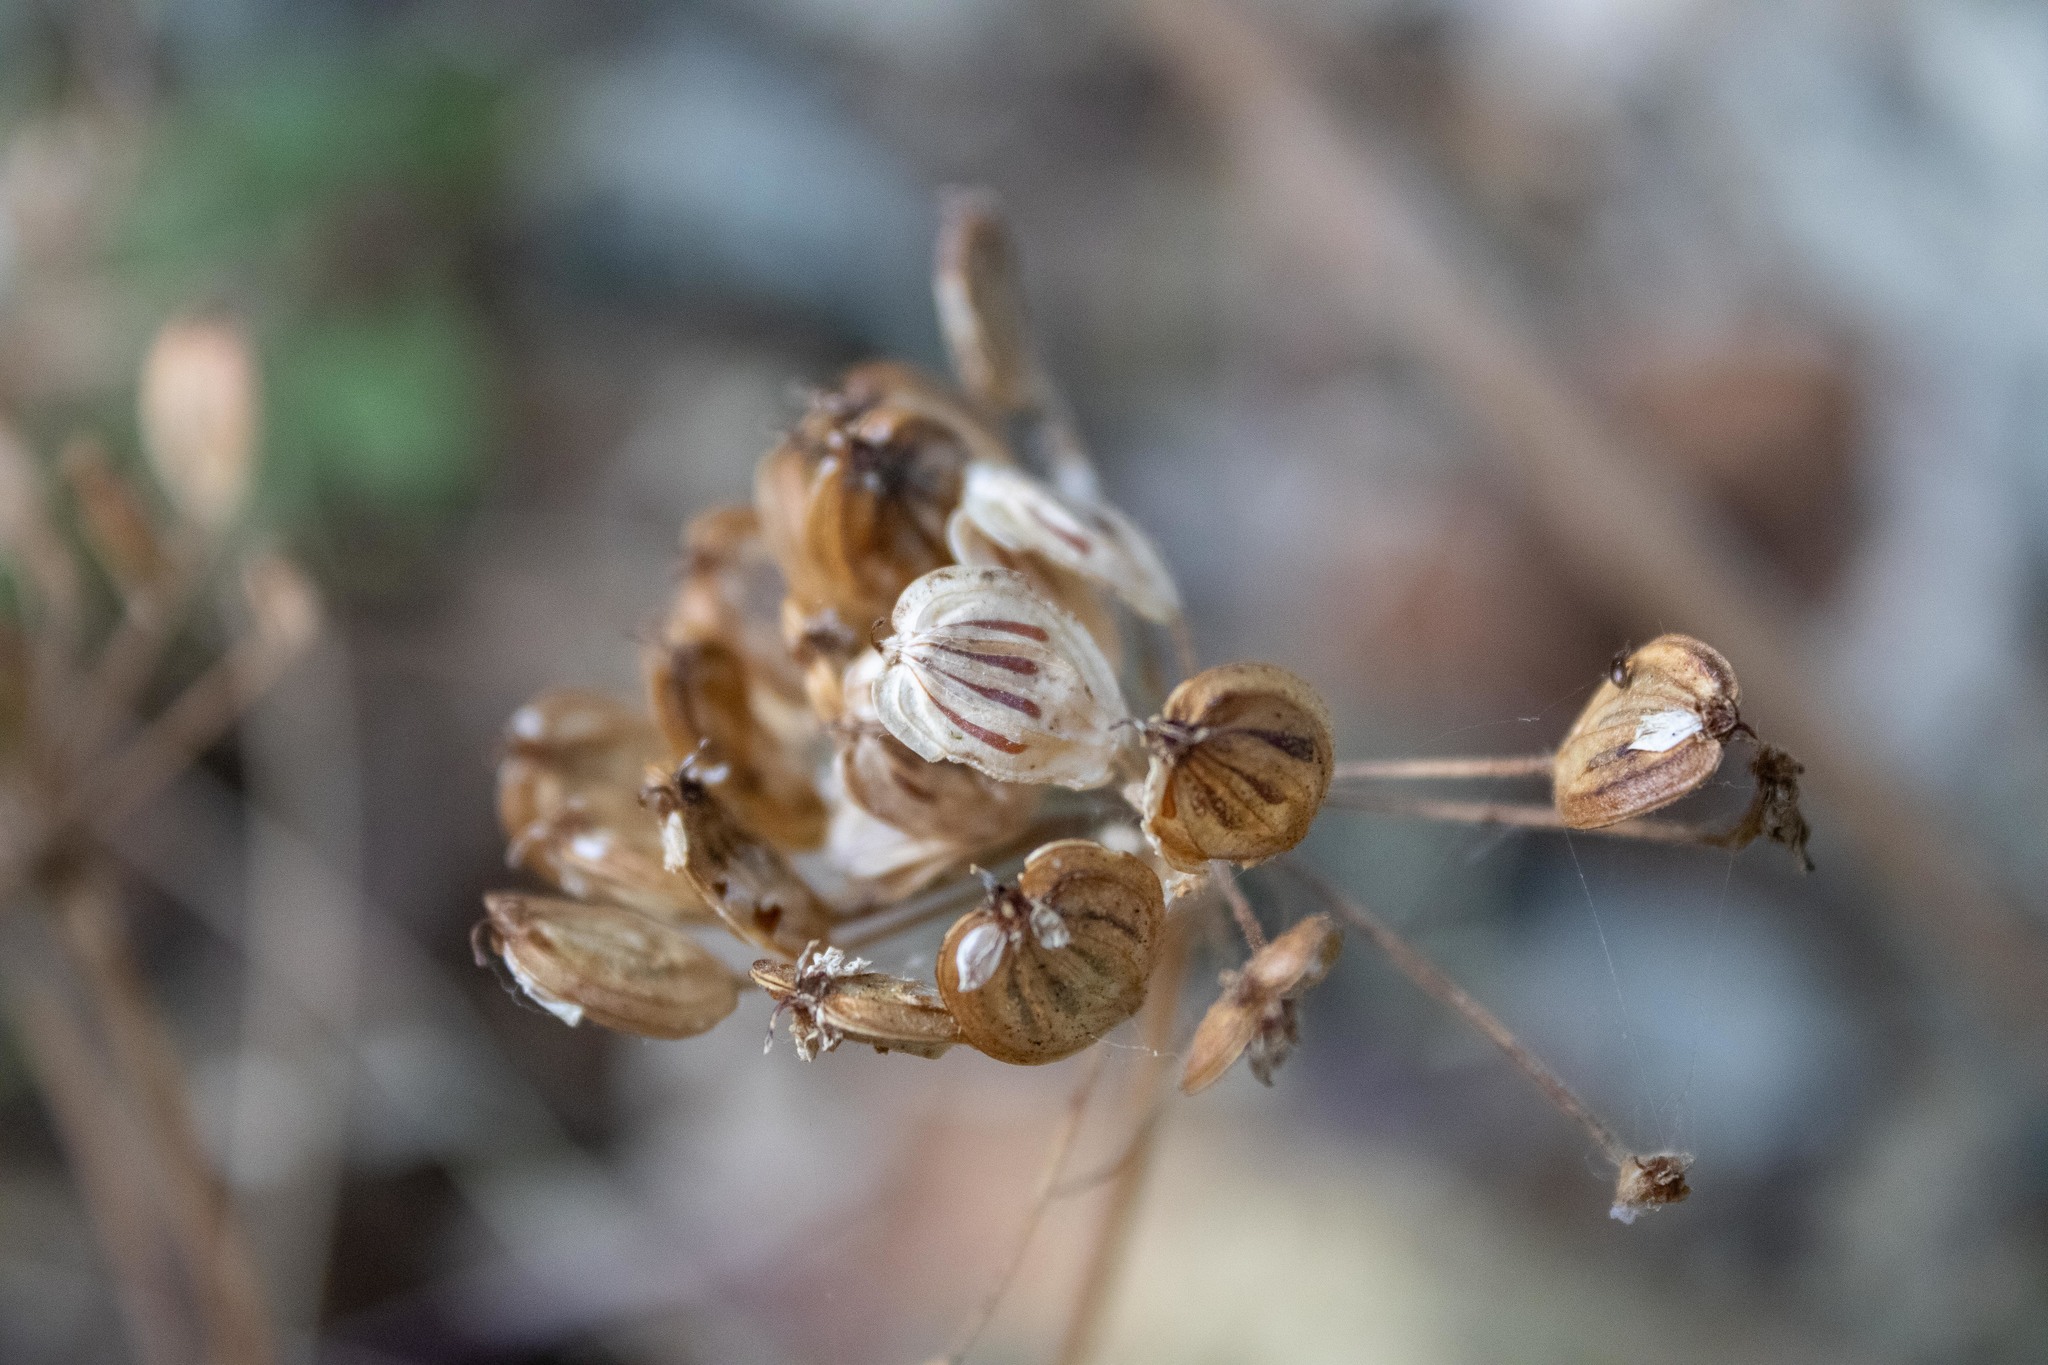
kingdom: Plantae
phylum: Tracheophyta
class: Magnoliopsida
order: Apiales
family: Apiaceae
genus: Heracleum
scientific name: Heracleum maximum
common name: American cow parsnip
